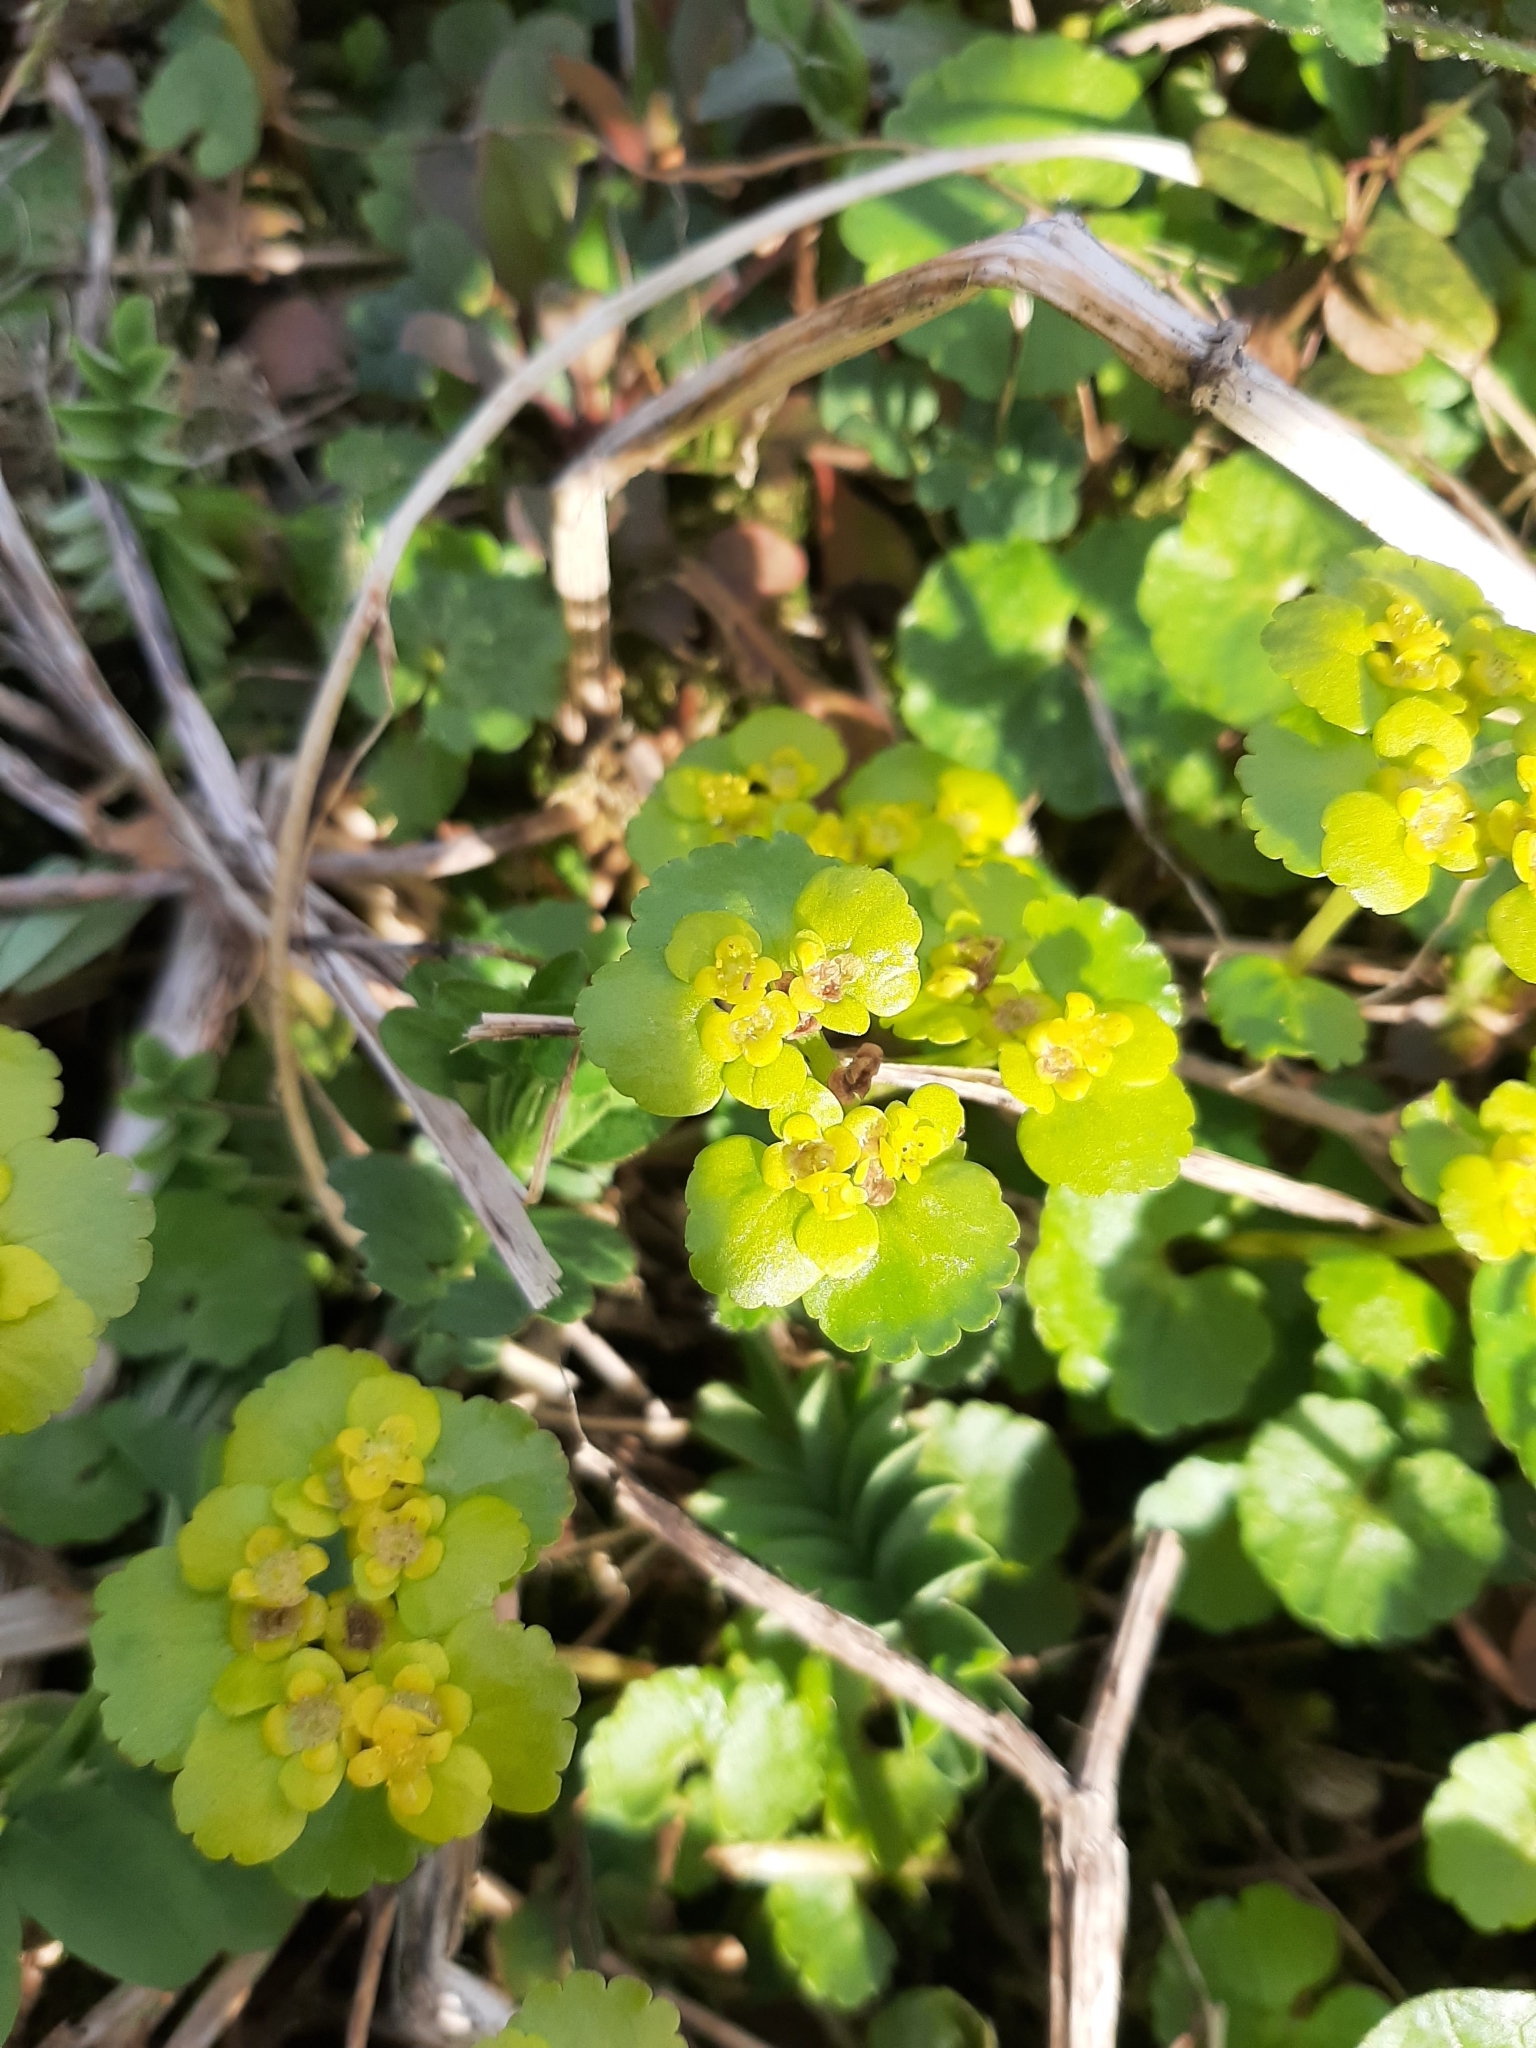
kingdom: Plantae
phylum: Tracheophyta
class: Magnoliopsida
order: Saxifragales
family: Saxifragaceae
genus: Chrysosplenium
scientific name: Chrysosplenium alternifolium
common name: Alternate-leaved golden-saxifrage
